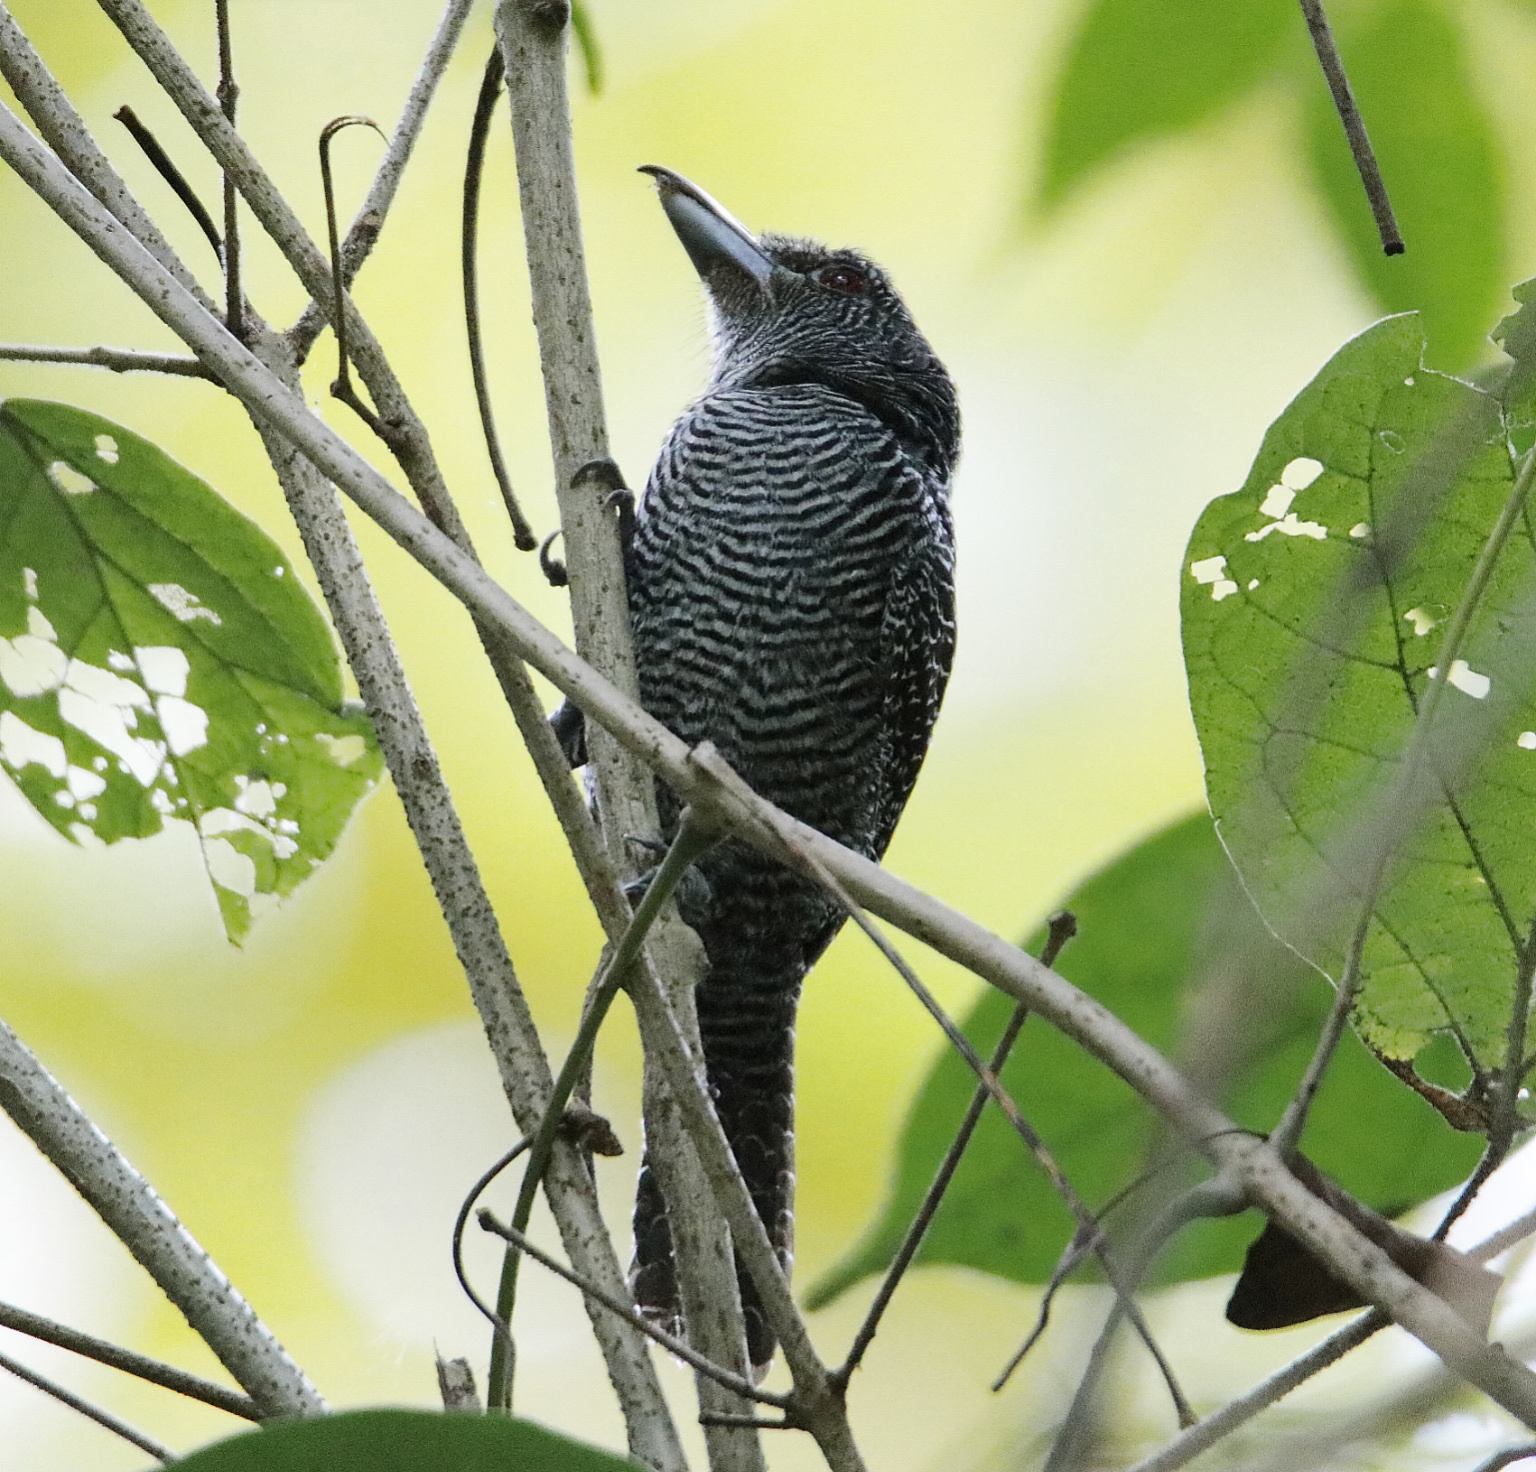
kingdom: Animalia
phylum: Chordata
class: Aves
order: Passeriformes
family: Thamnophilidae
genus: Cymbilaimus
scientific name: Cymbilaimus lineatus
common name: Fasciated antshrike
